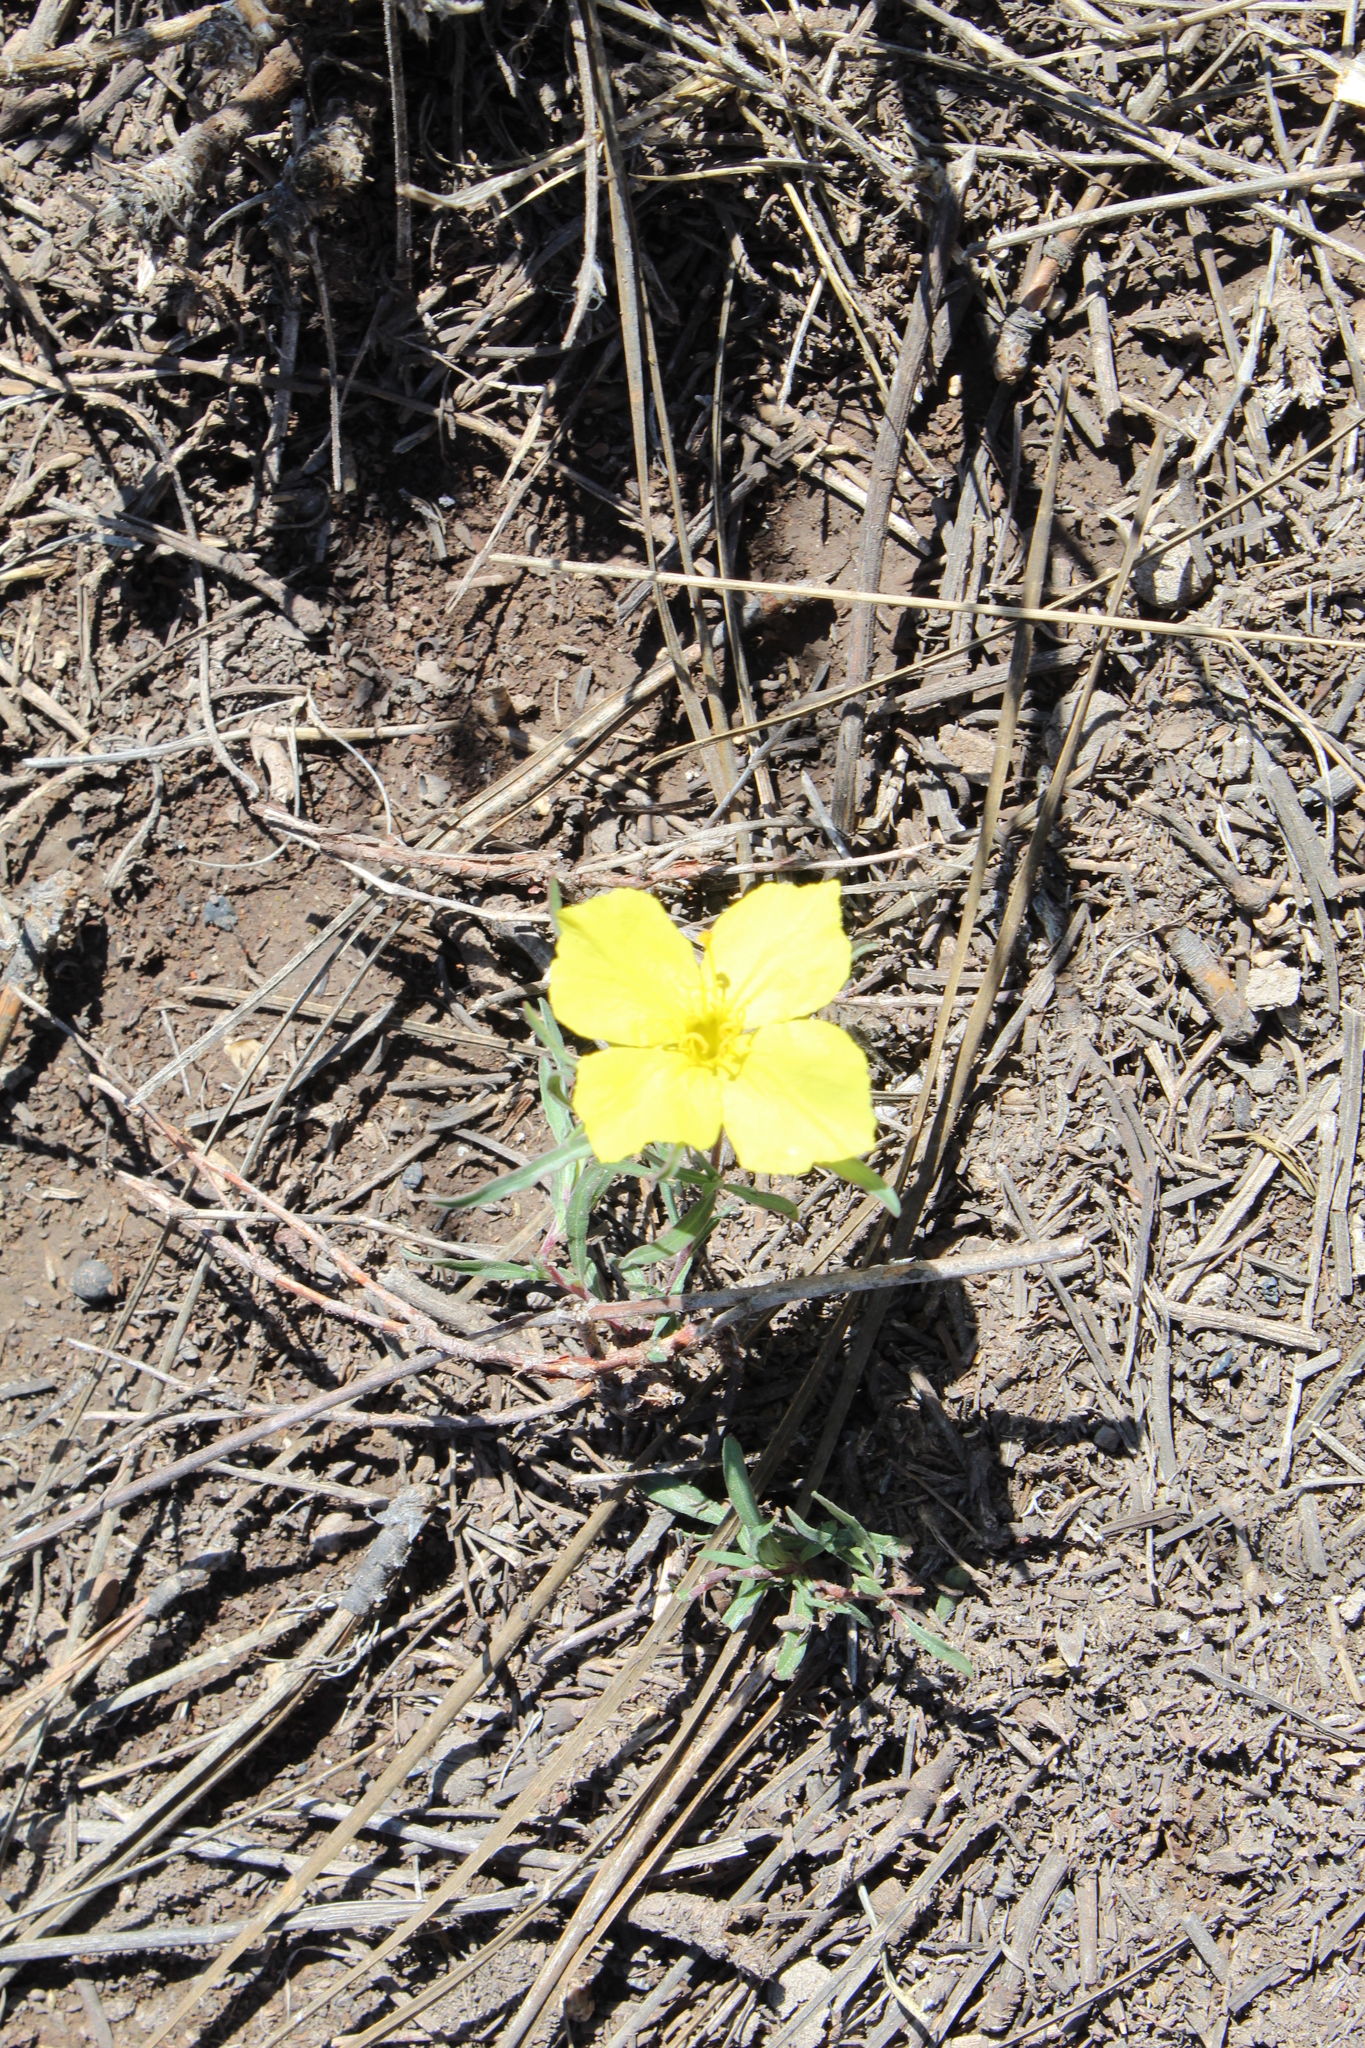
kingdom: Plantae
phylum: Tracheophyta
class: Magnoliopsida
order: Myrtales
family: Onagraceae
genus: Oenothera
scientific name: Oenothera hartwegii
